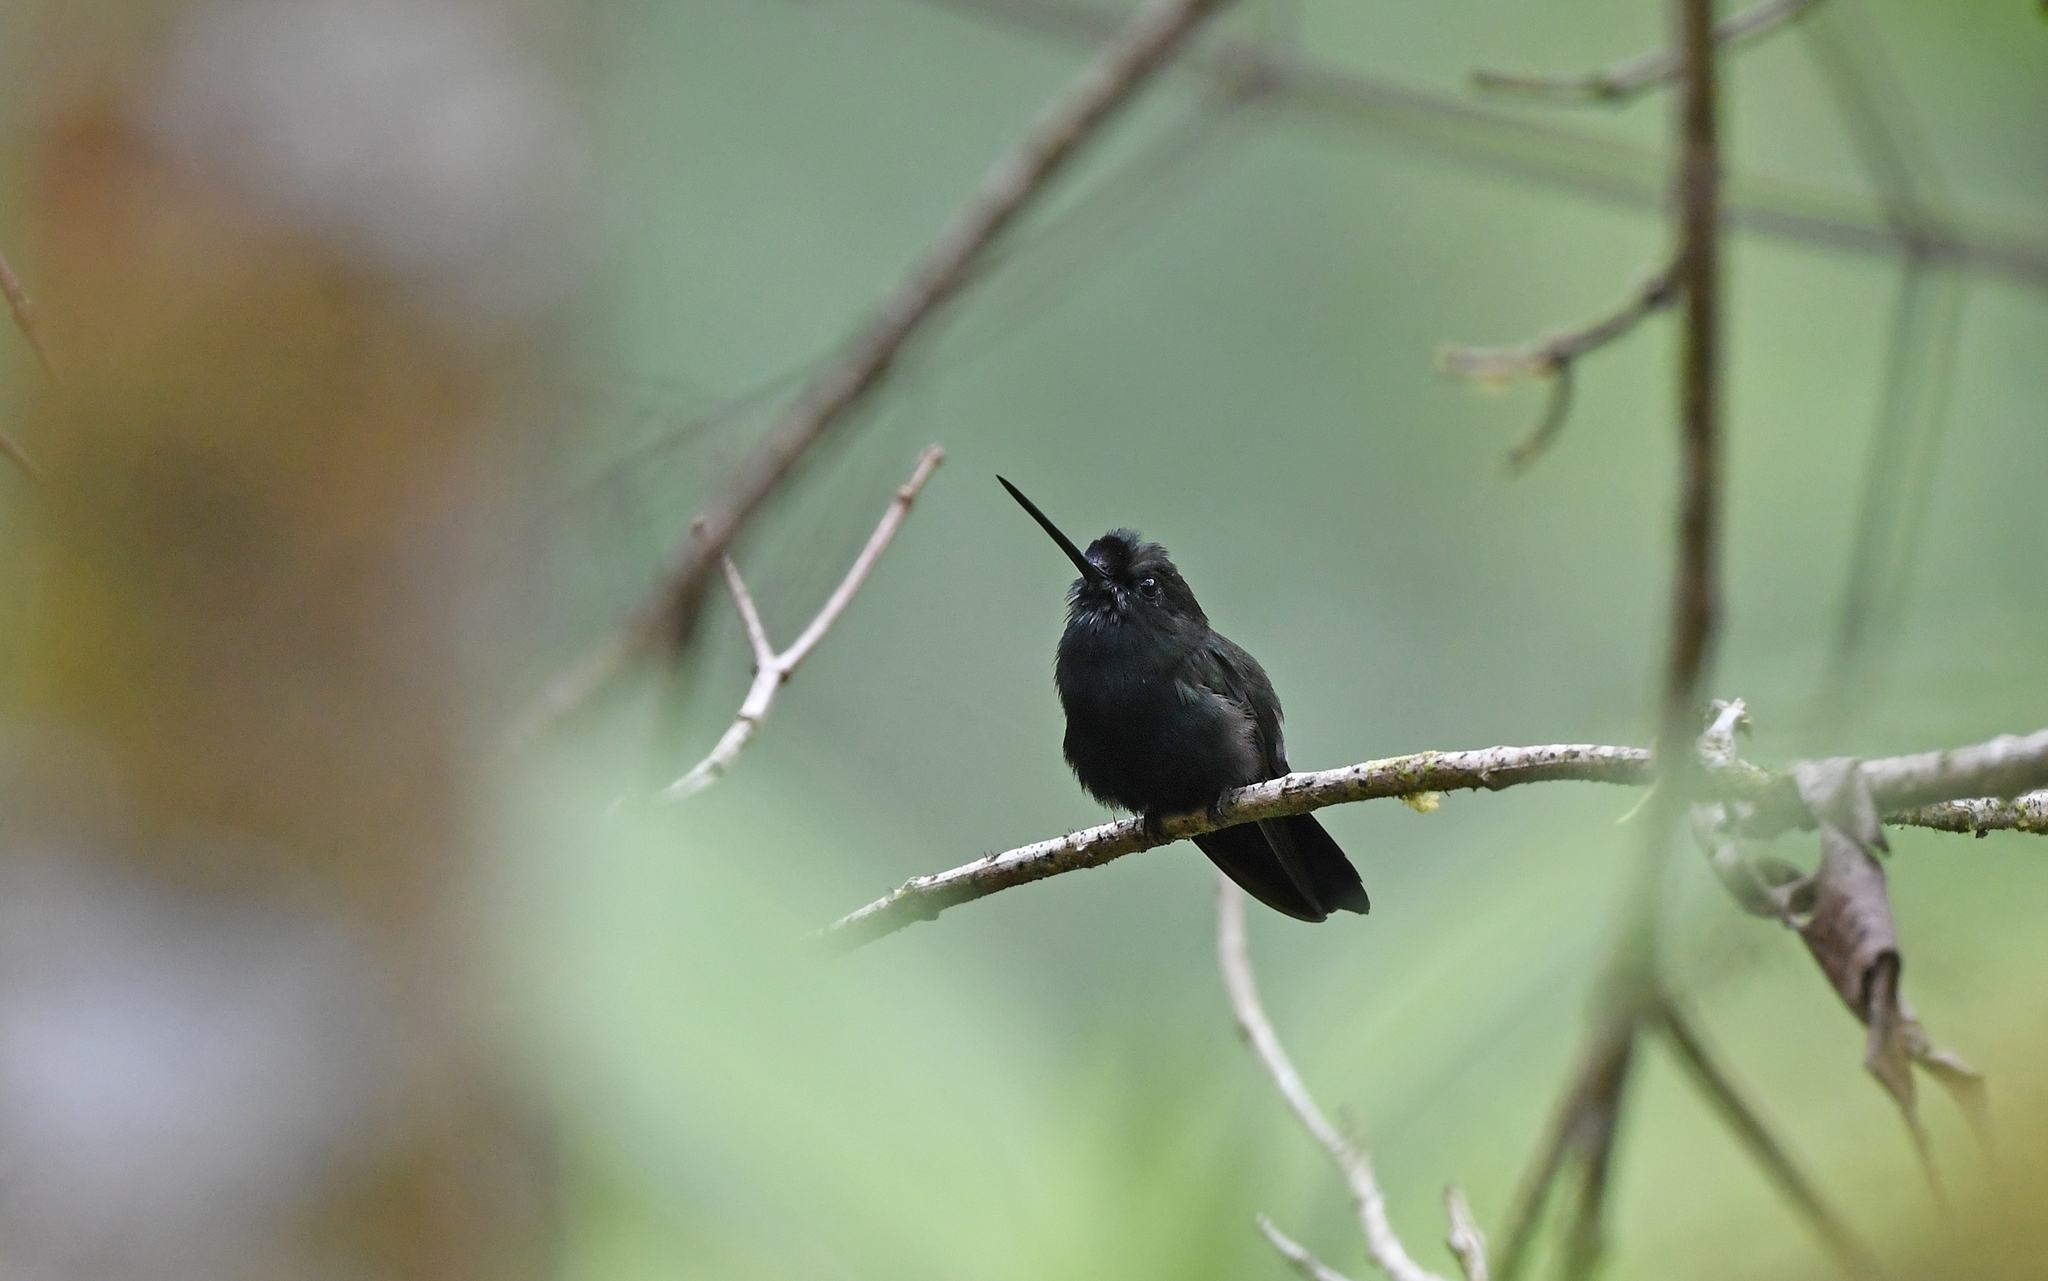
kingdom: Animalia
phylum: Chordata
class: Aves
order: Apodiformes
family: Trochilidae
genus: Doryfera
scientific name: Doryfera johannae
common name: Blue-fronted lancebill
